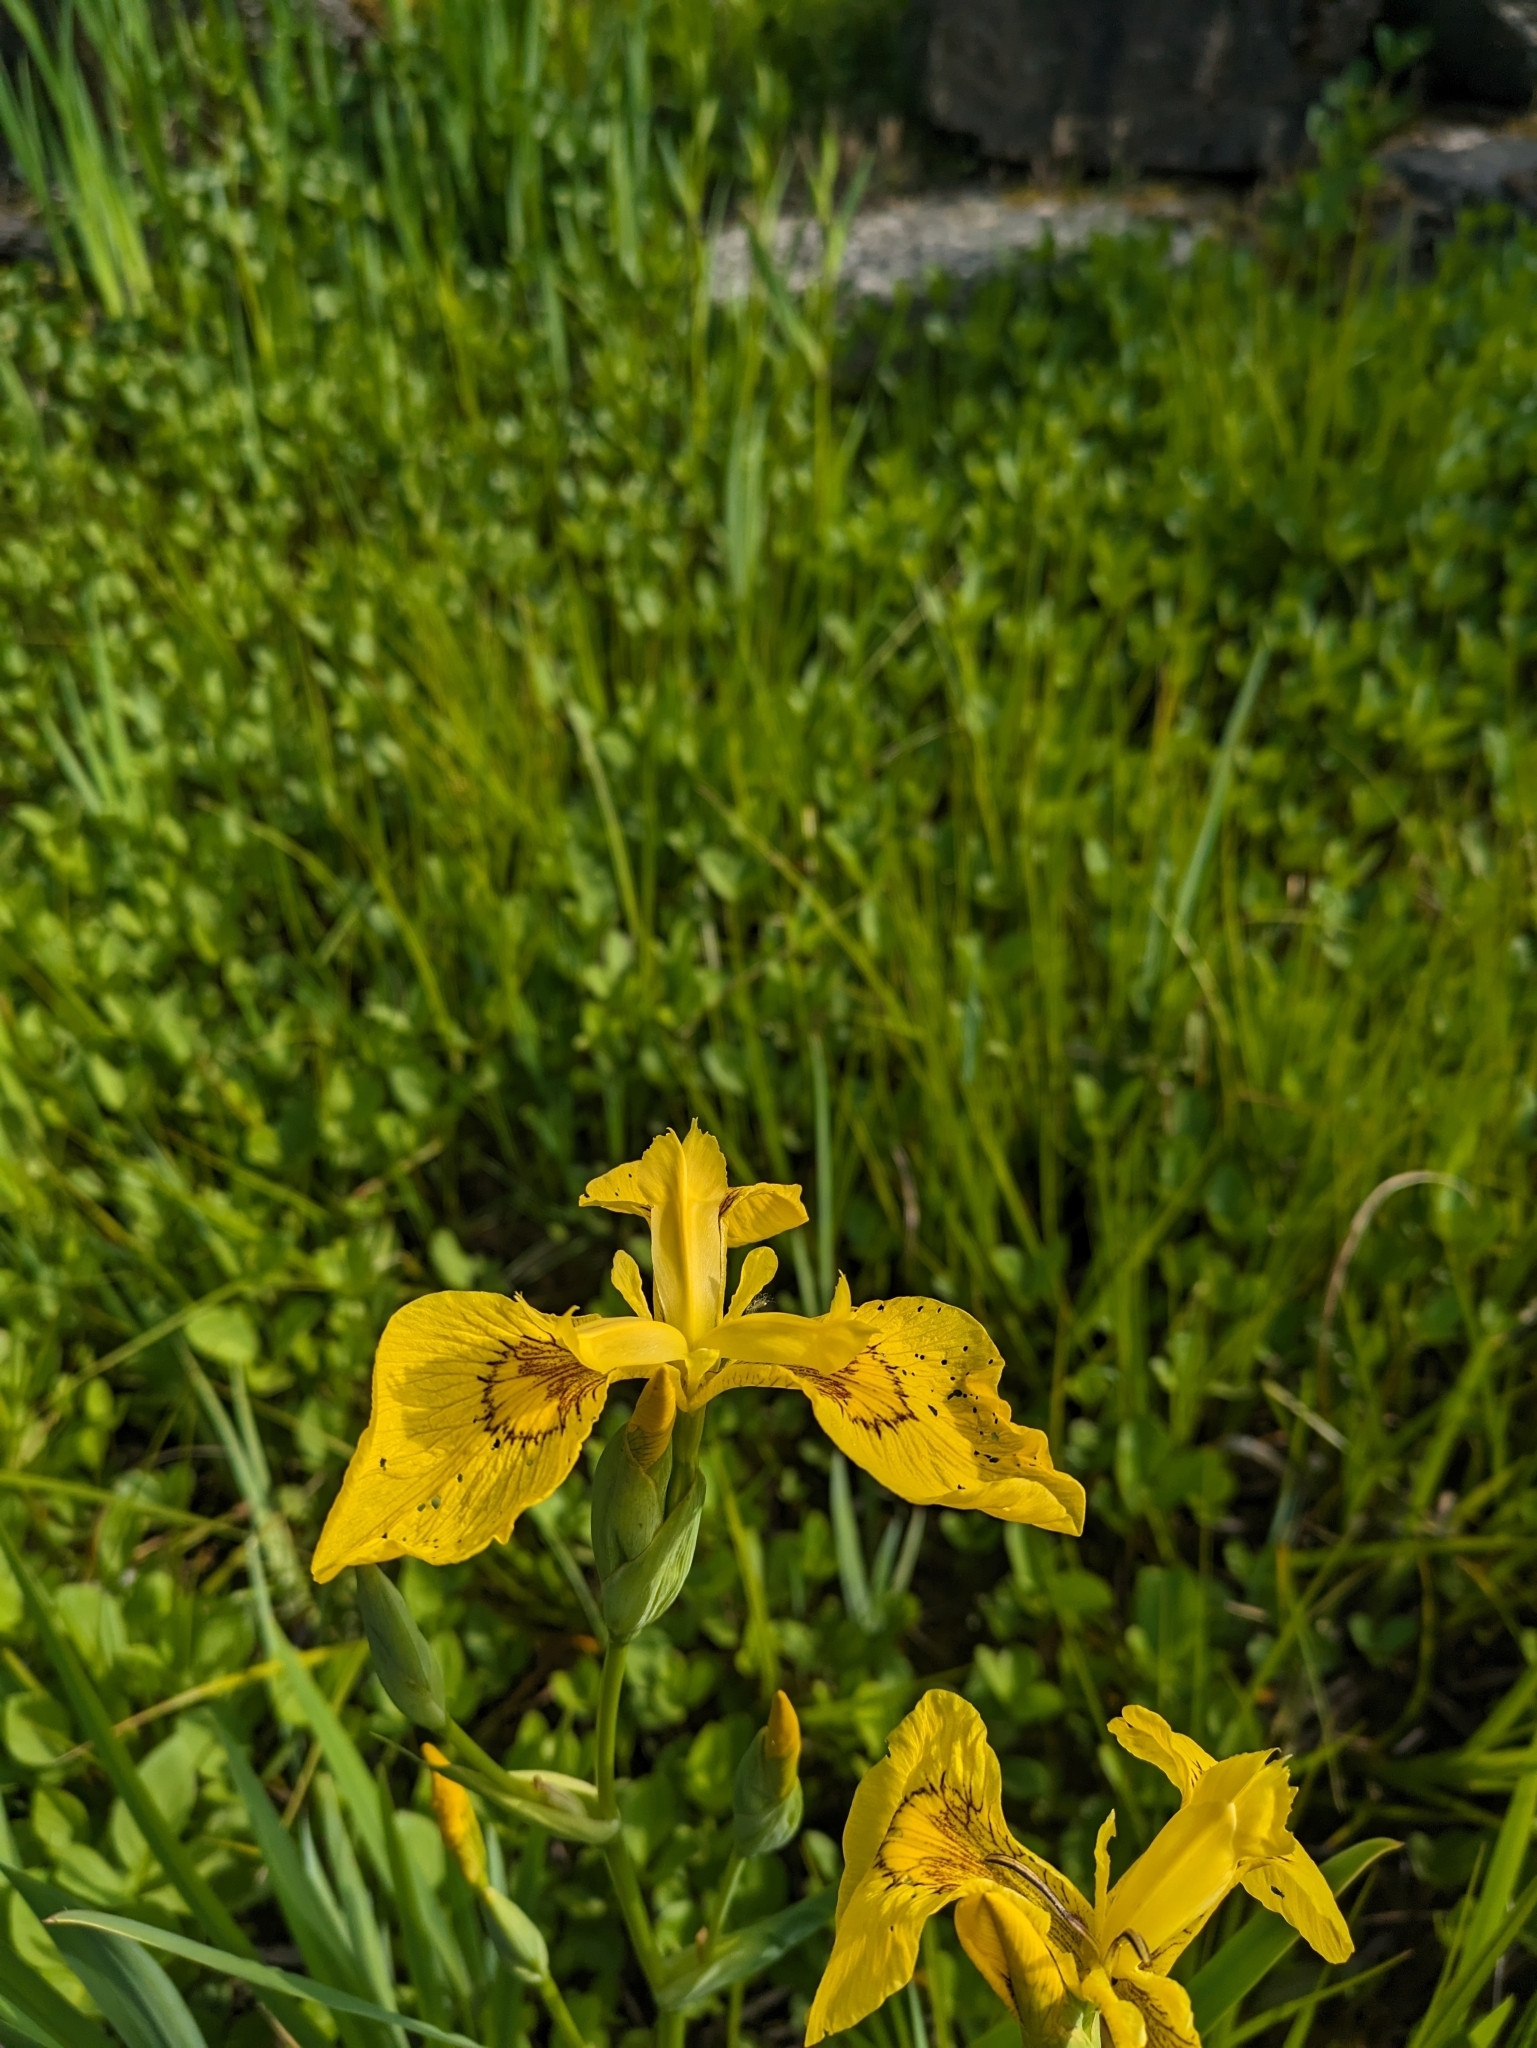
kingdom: Plantae
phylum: Tracheophyta
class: Liliopsida
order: Asparagales
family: Iridaceae
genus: Iris
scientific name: Iris pseudacorus
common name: Yellow flag
